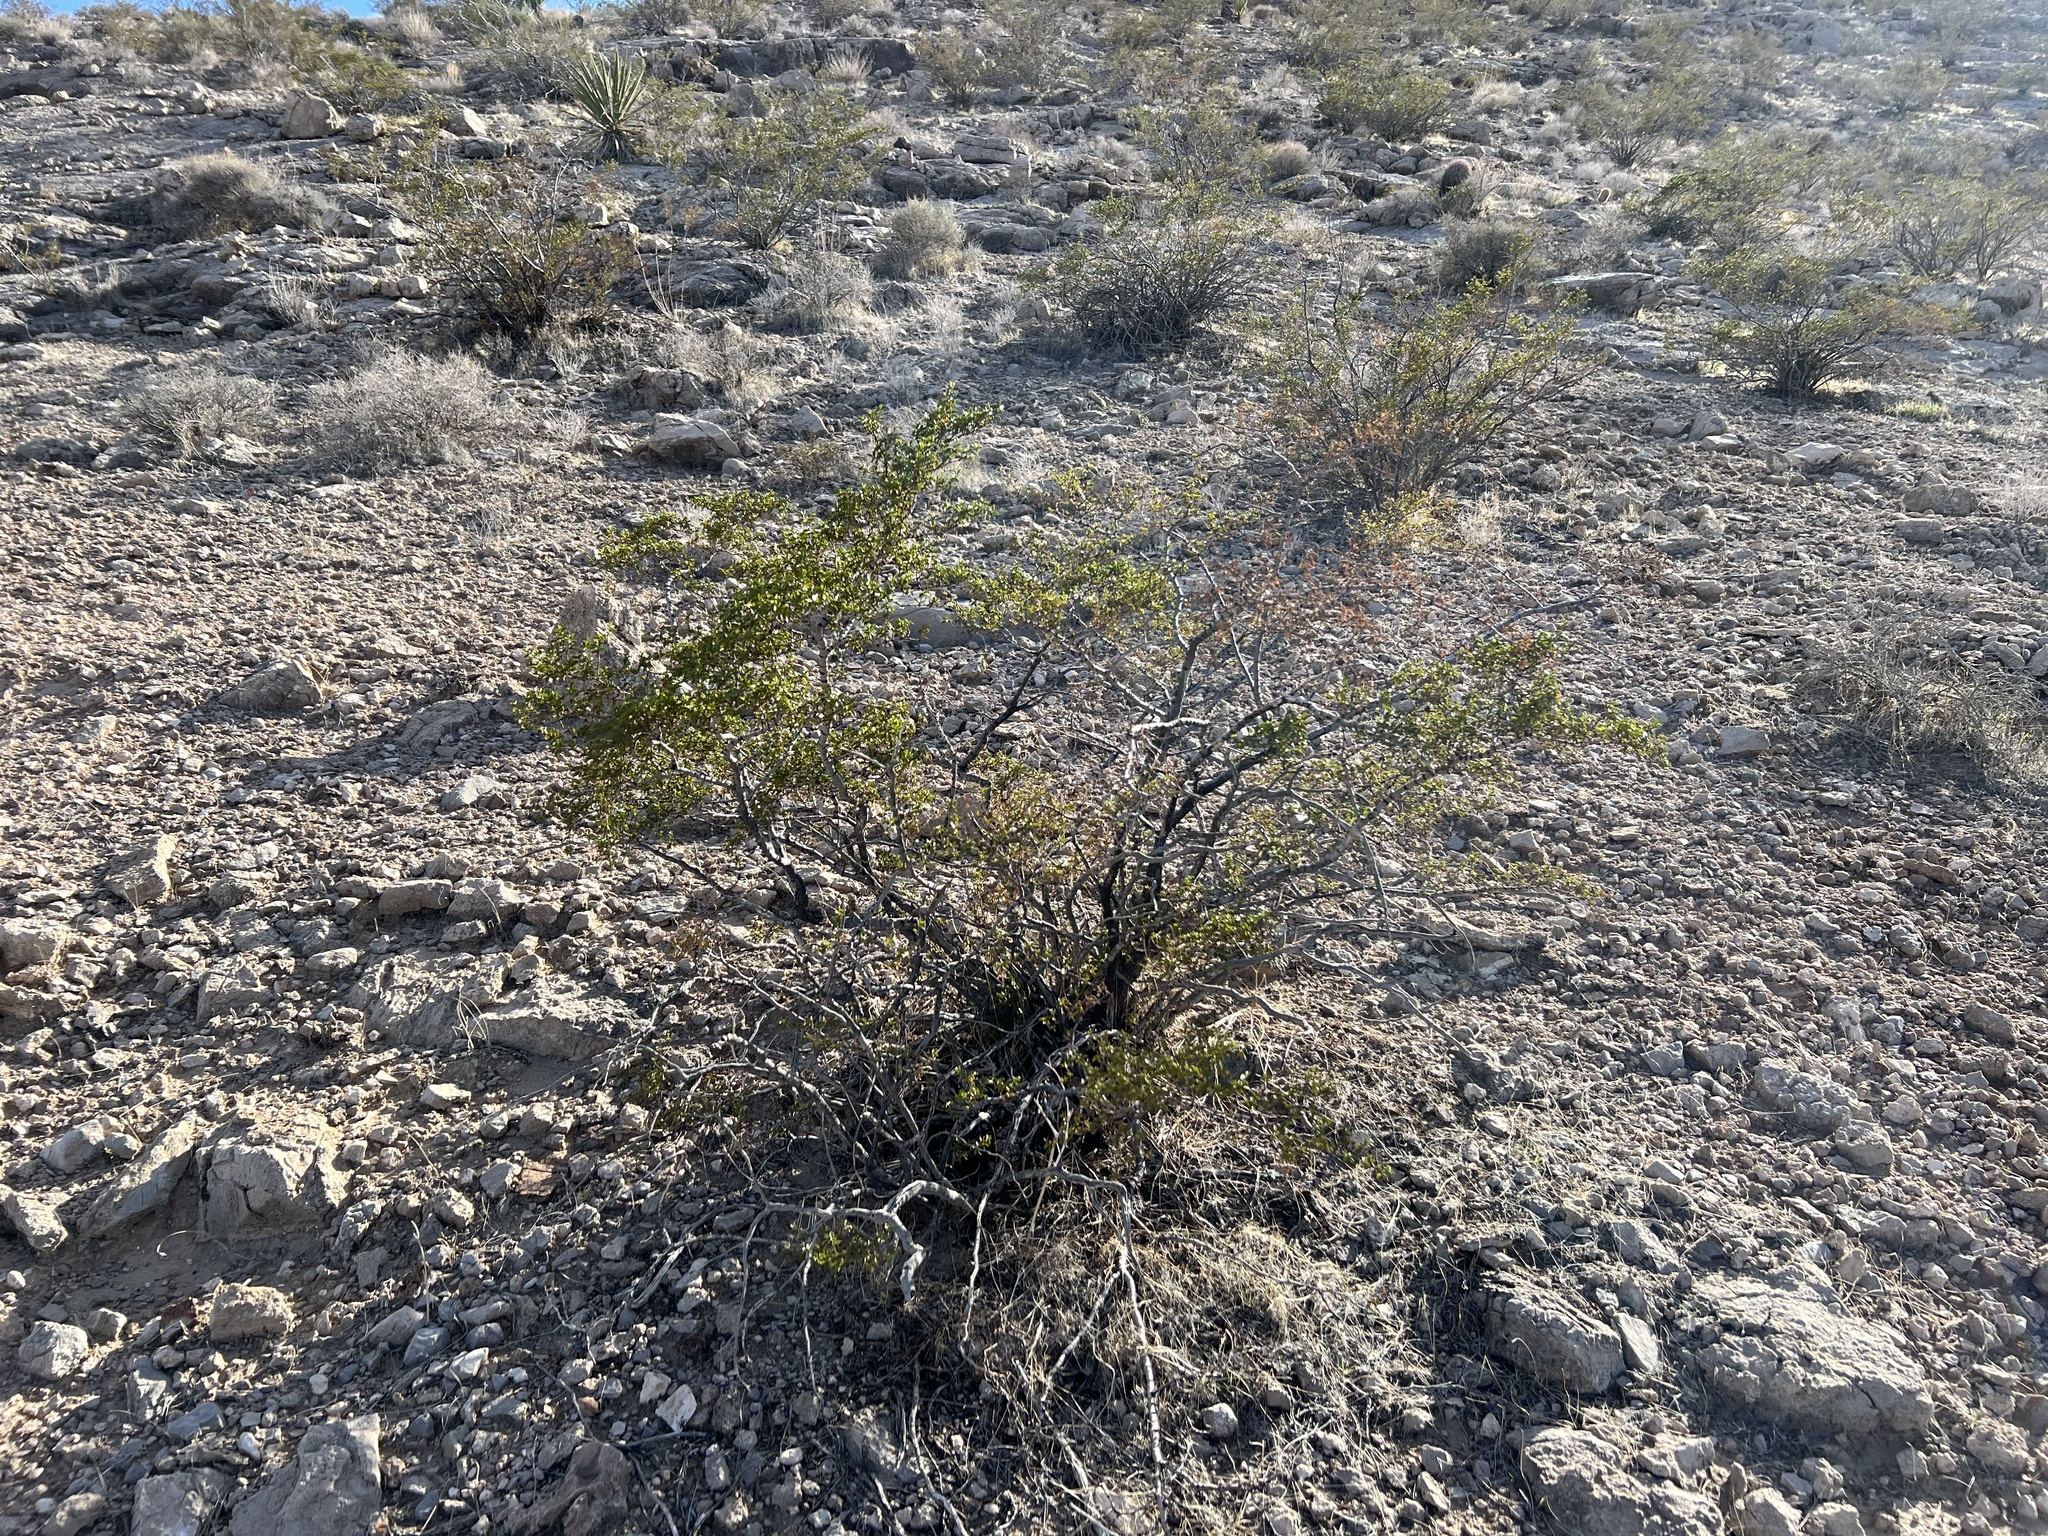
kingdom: Plantae
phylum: Tracheophyta
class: Magnoliopsida
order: Zygophyllales
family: Zygophyllaceae
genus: Larrea
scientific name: Larrea tridentata
